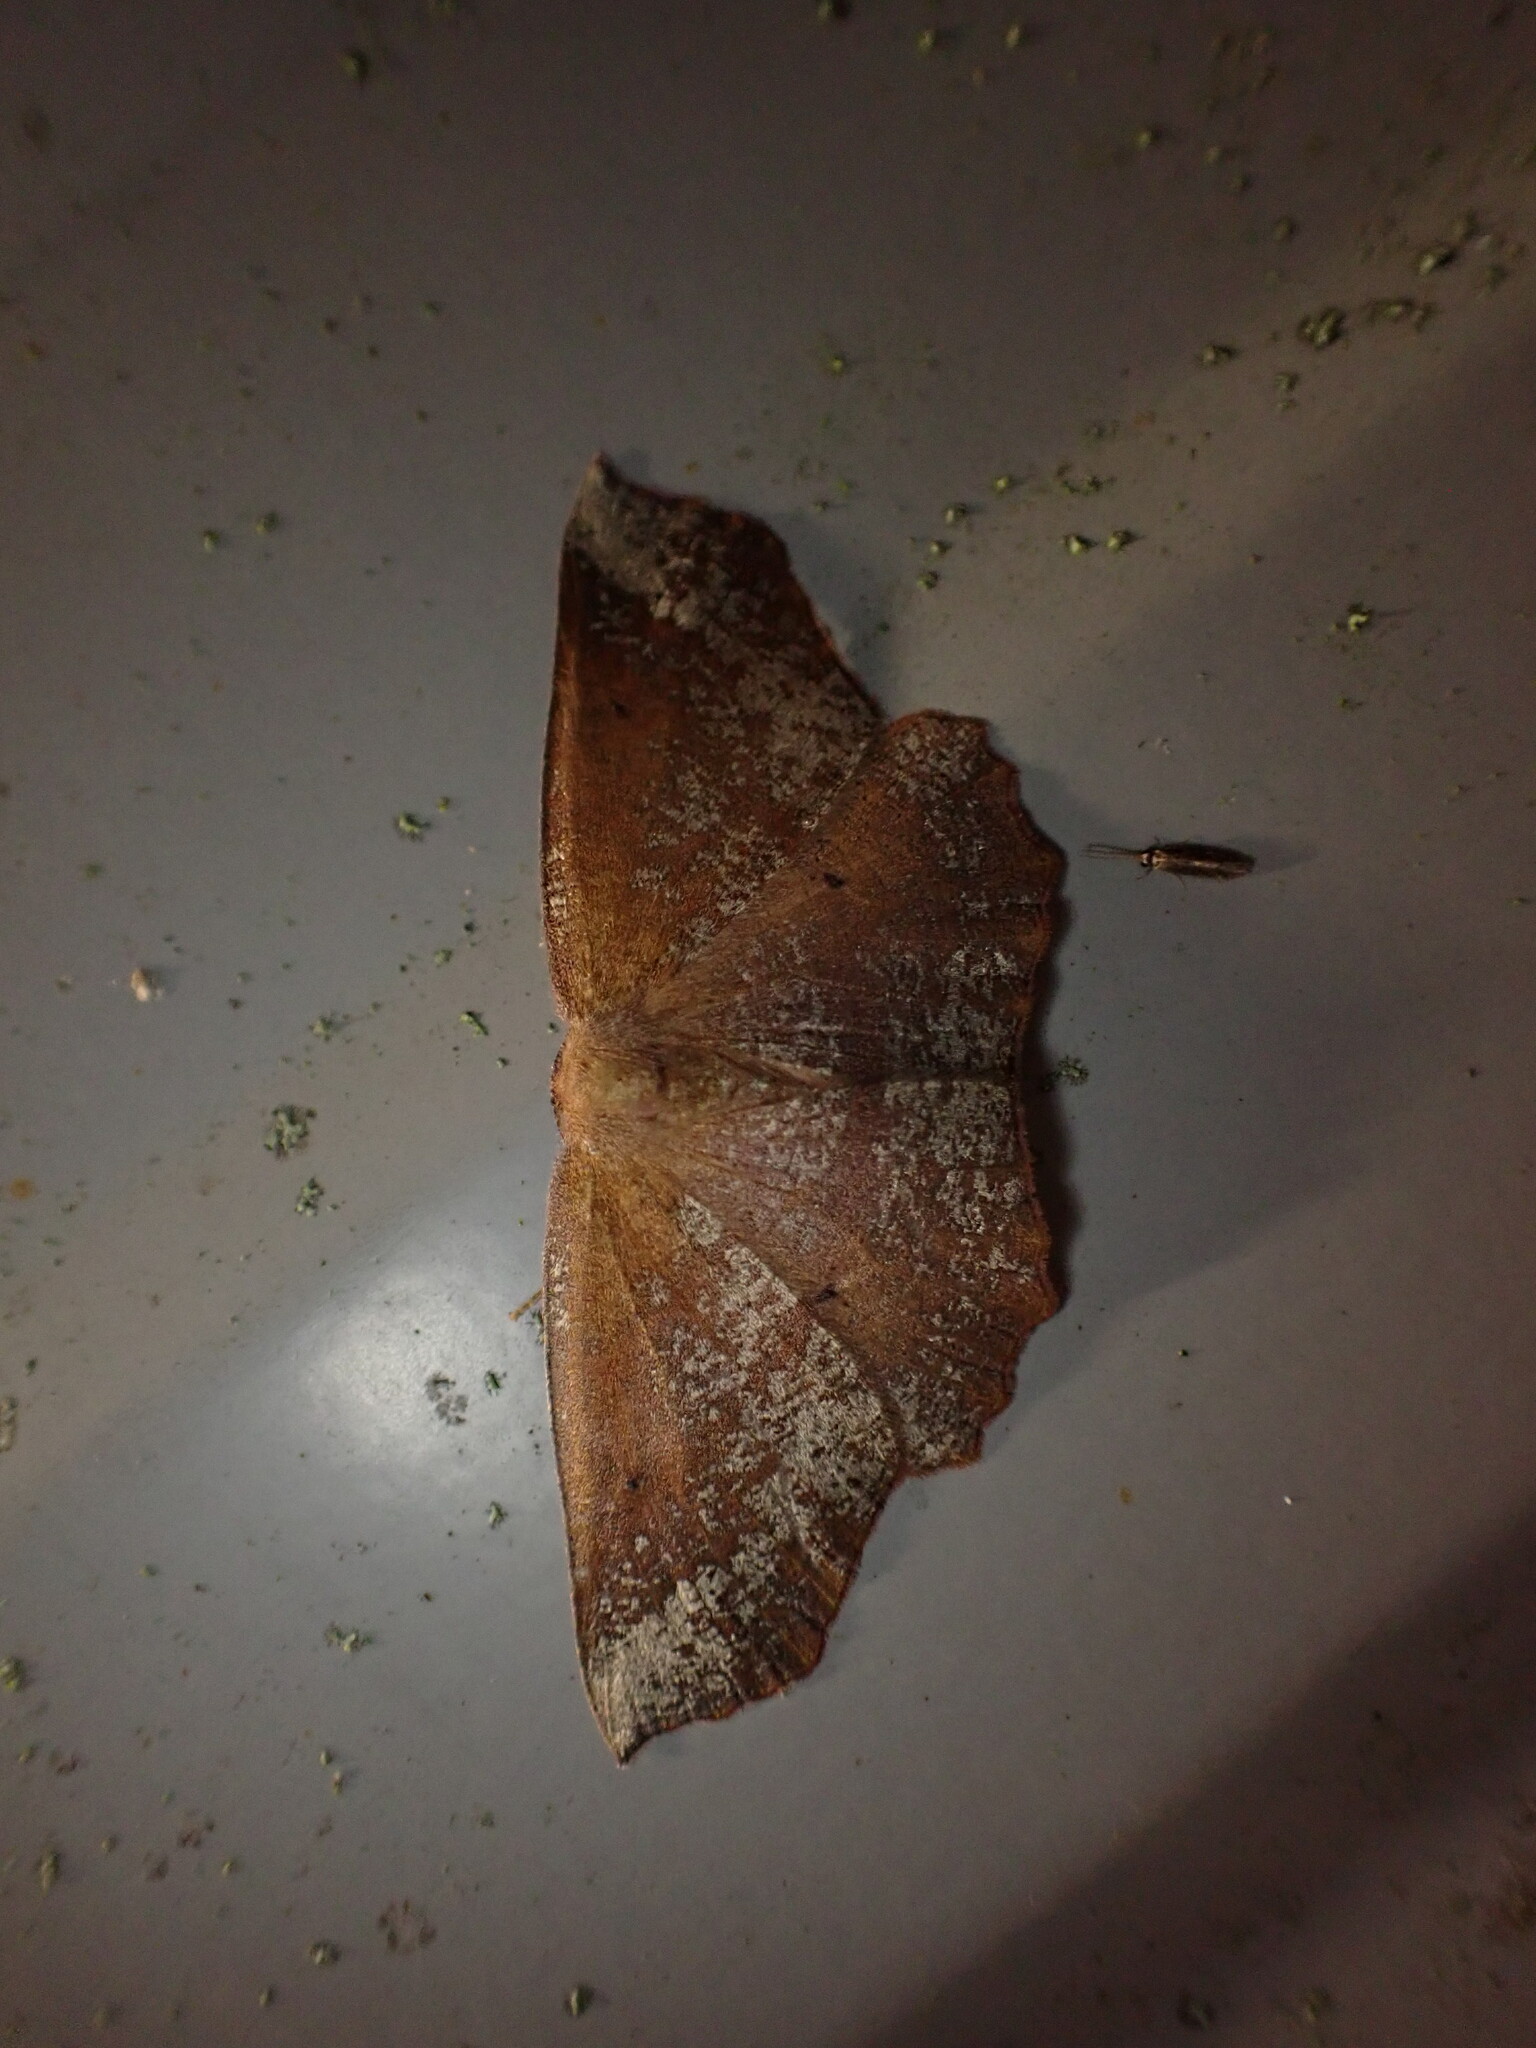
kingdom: Animalia
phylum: Arthropoda
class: Insecta
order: Lepidoptera
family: Geometridae
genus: Xyridacma
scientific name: Xyridacma ustaria
